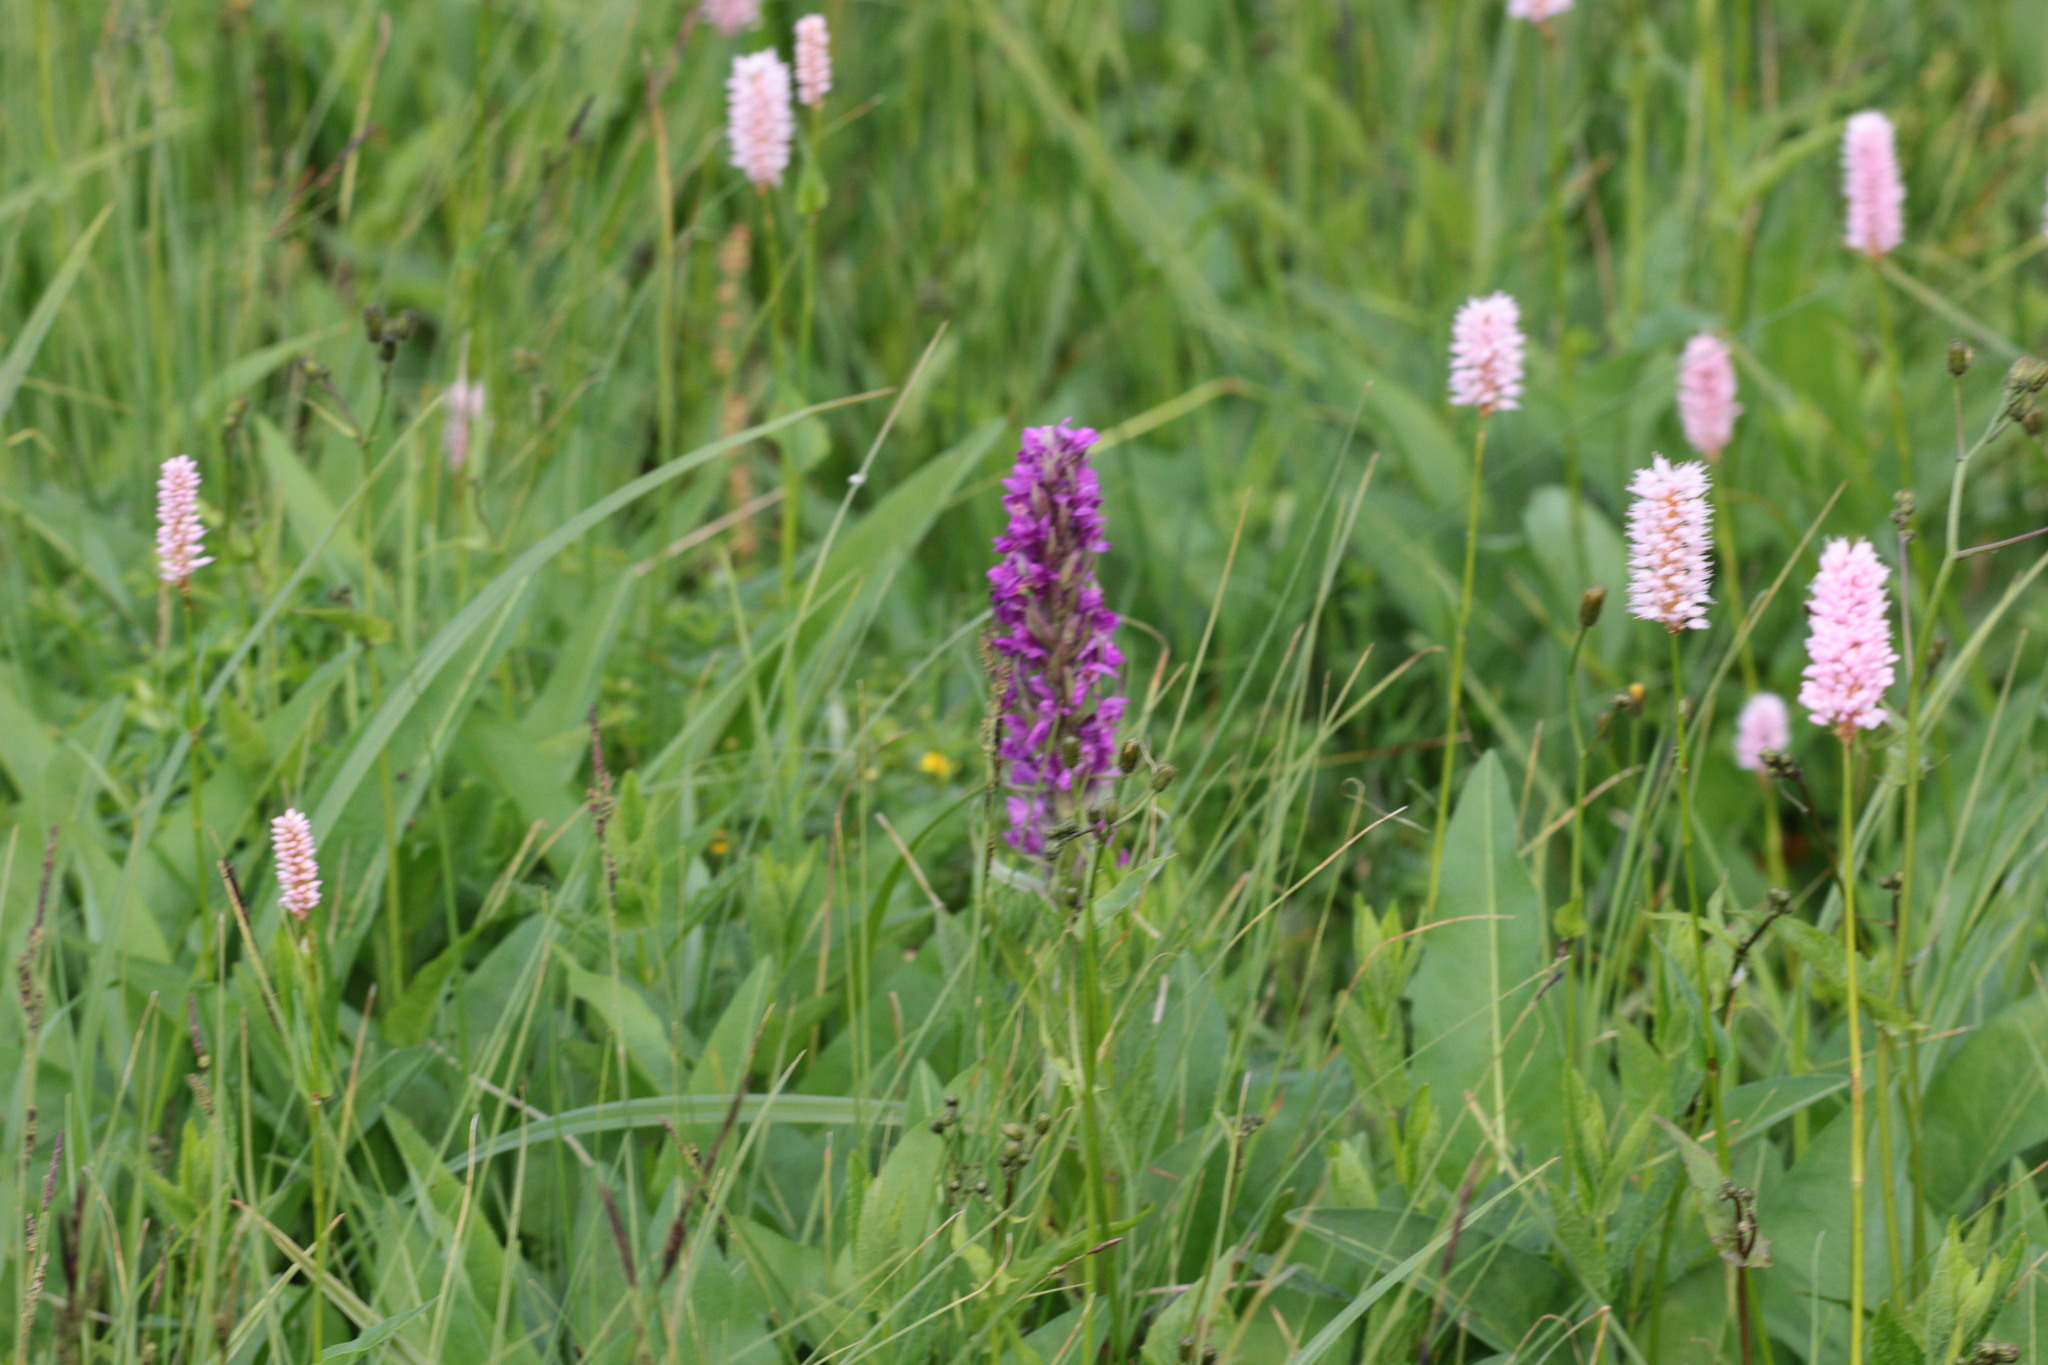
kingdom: Plantae
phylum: Tracheophyta
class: Magnoliopsida
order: Caryophyllales
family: Polygonaceae
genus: Bistorta
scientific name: Bistorta officinalis
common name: Common bistort
